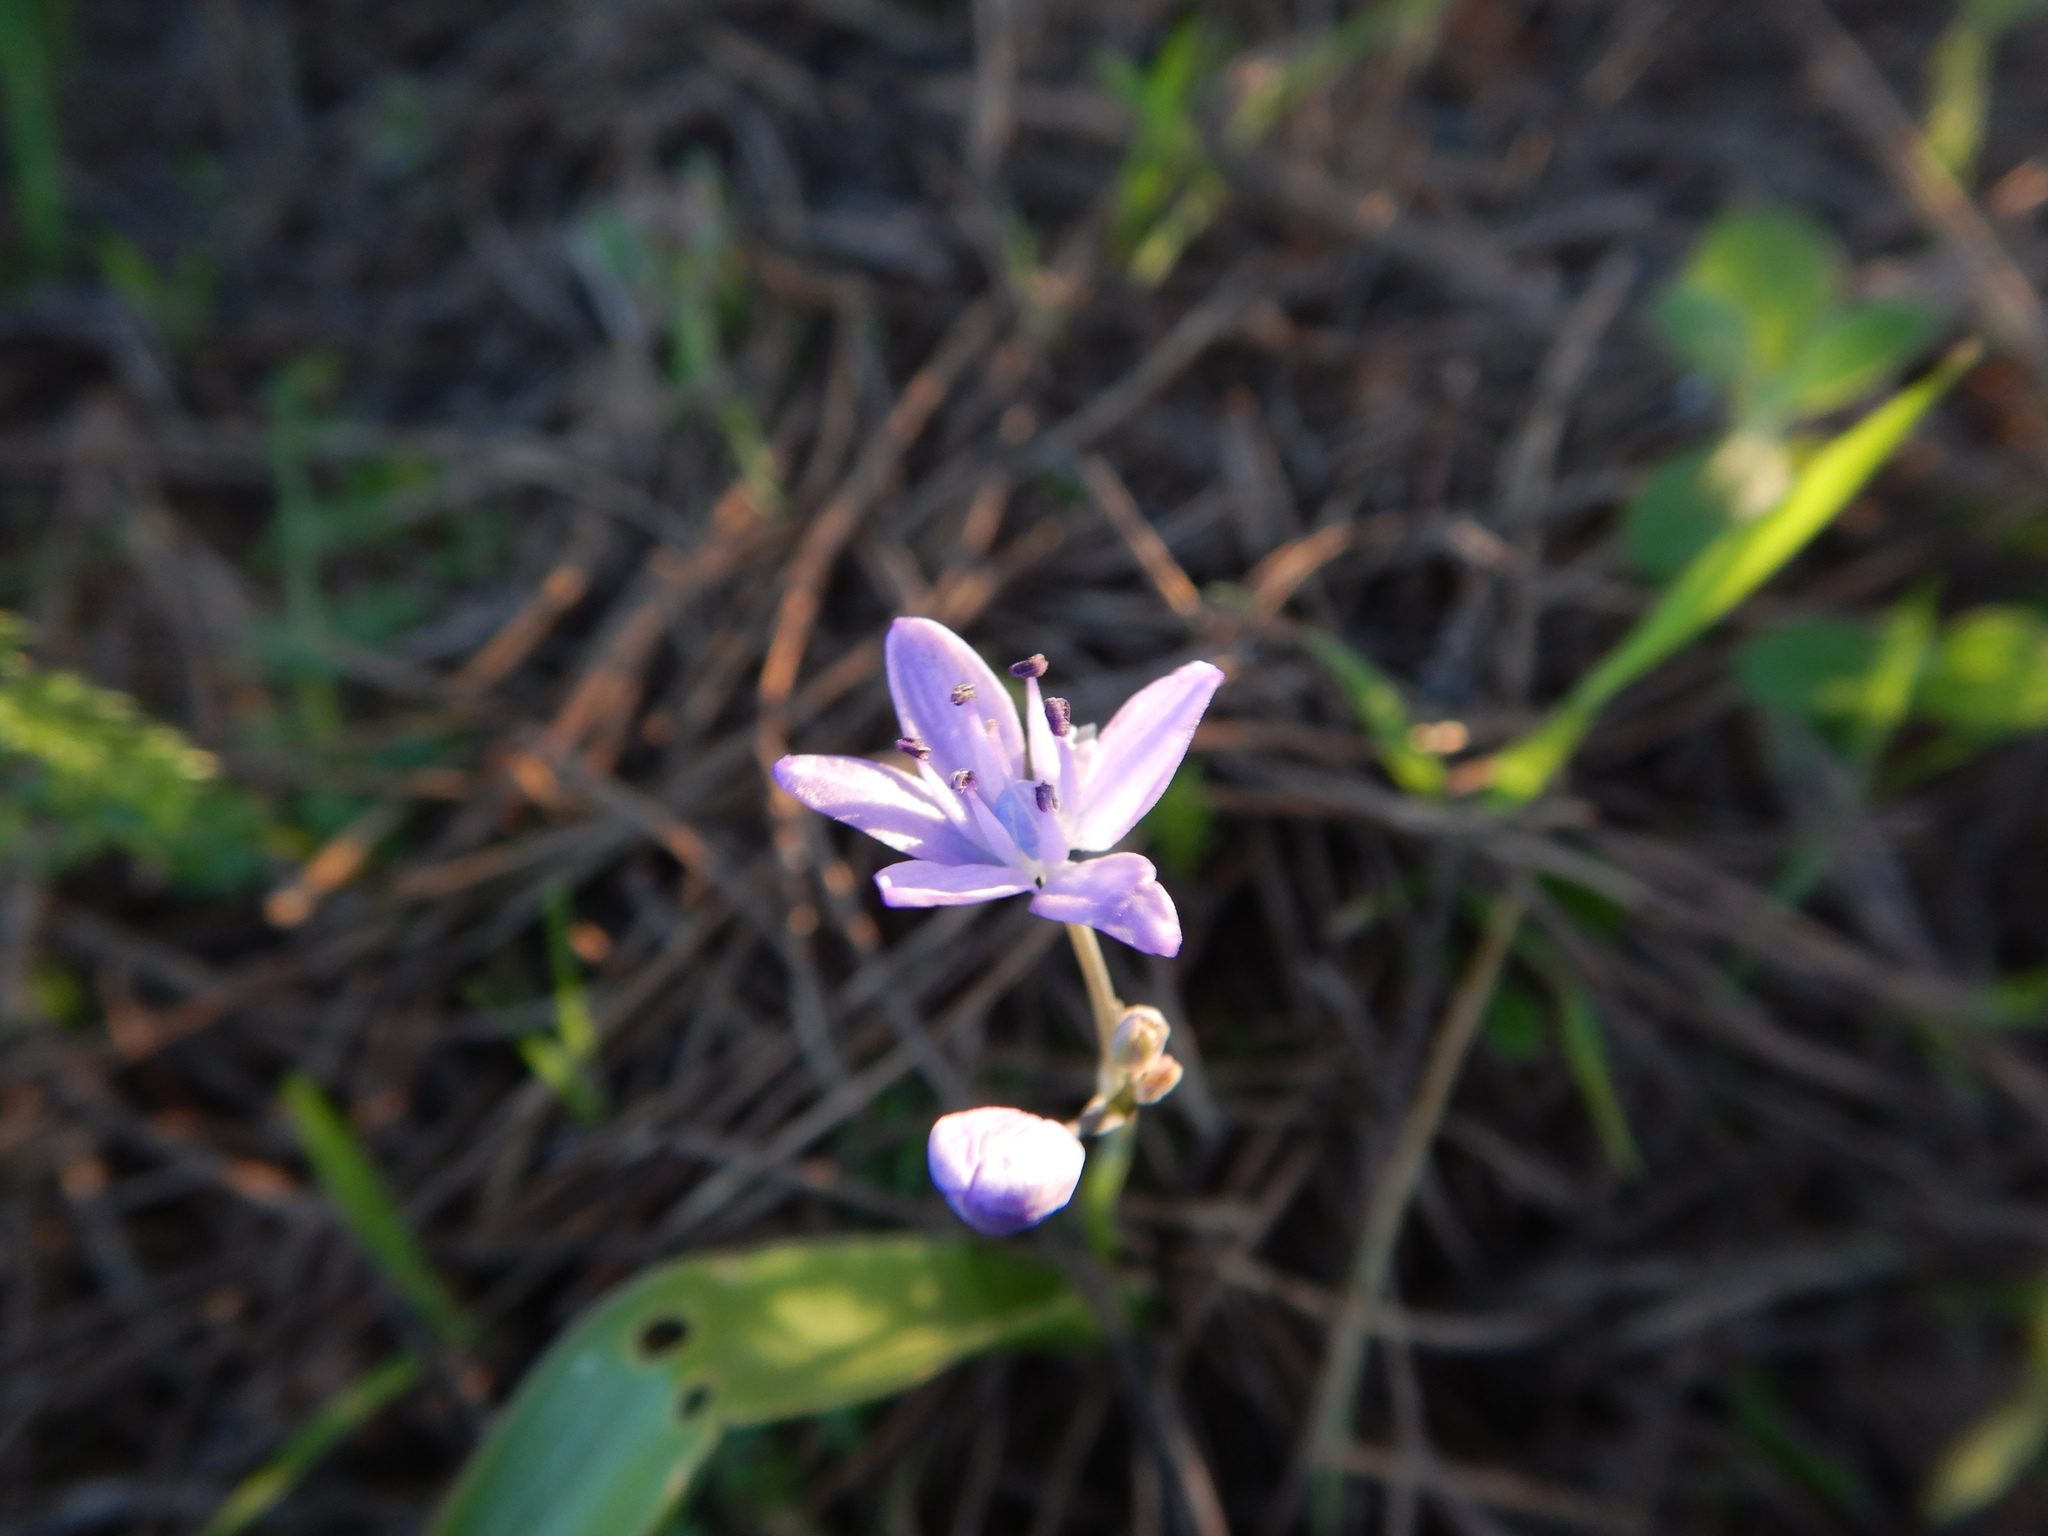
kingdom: Plantae
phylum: Tracheophyta
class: Liliopsida
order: Asparagales
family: Asparagaceae
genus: Scilla
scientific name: Scilla monophyllos
